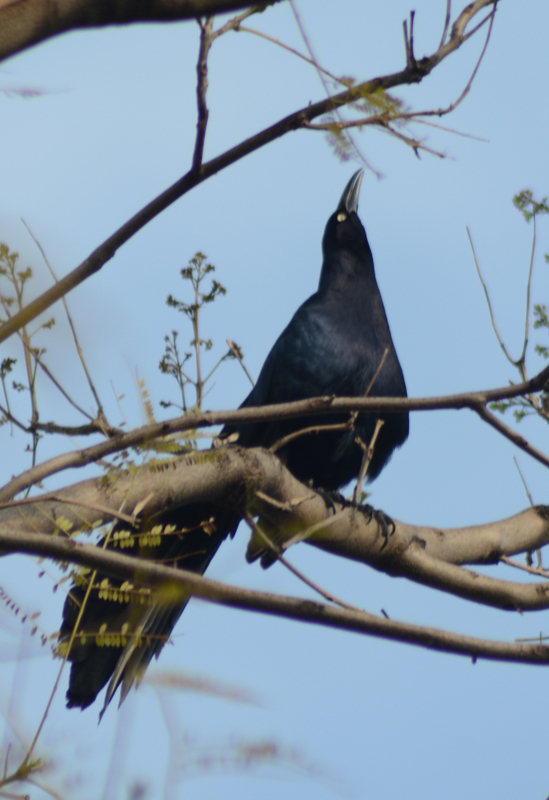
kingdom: Animalia
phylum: Chordata
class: Aves
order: Passeriformes
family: Icteridae
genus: Quiscalus
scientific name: Quiscalus mexicanus
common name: Great-tailed grackle
